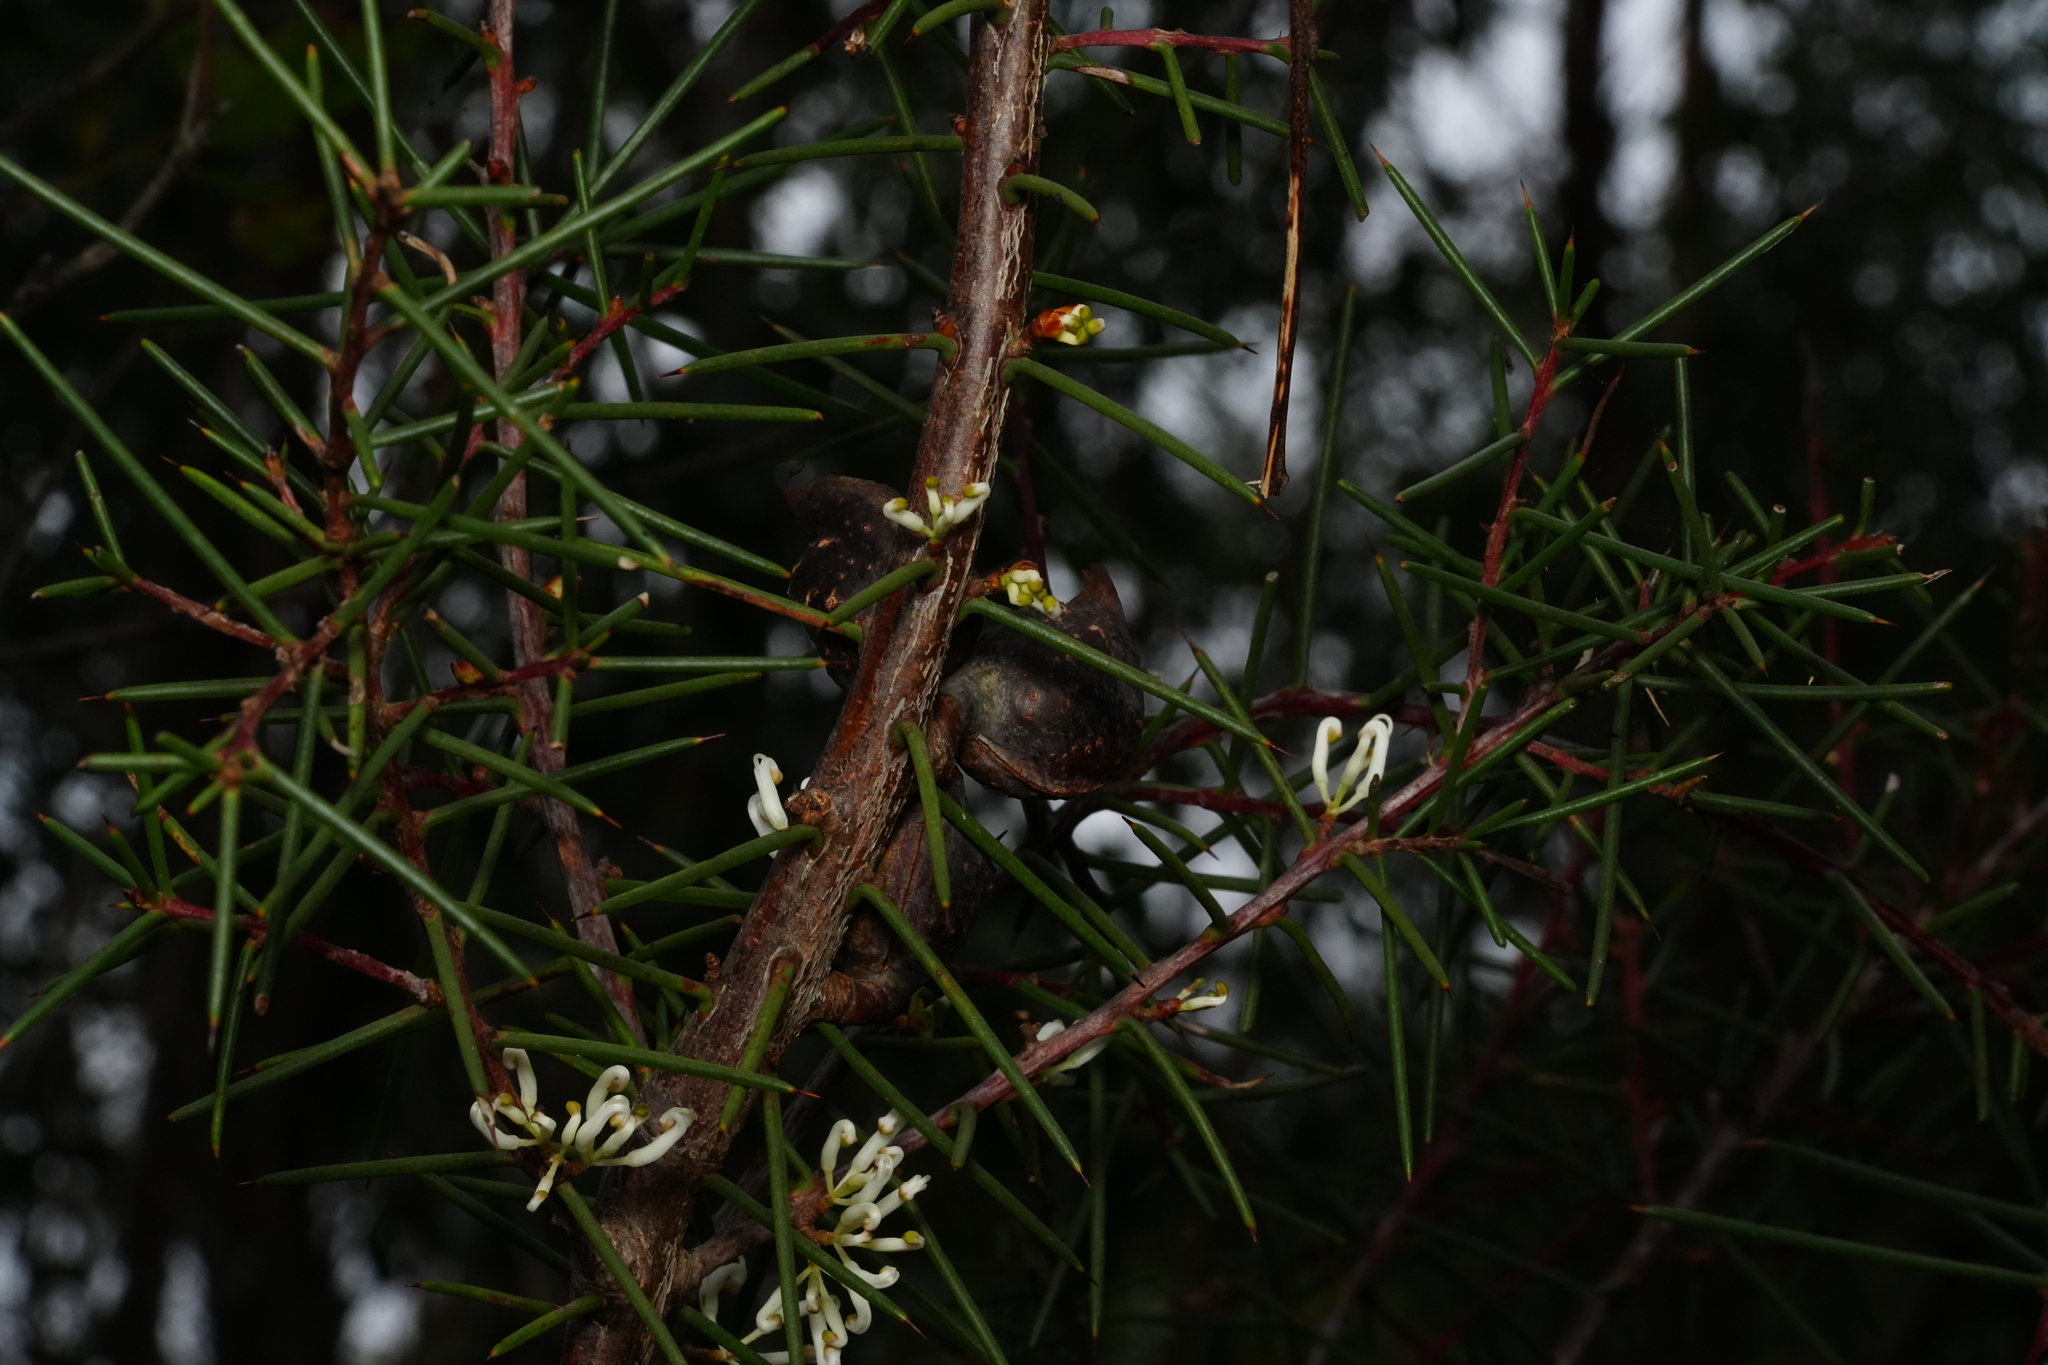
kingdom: Plantae
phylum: Tracheophyta
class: Magnoliopsida
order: Proteales
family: Proteaceae
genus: Hakea
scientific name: Hakea decurrens
